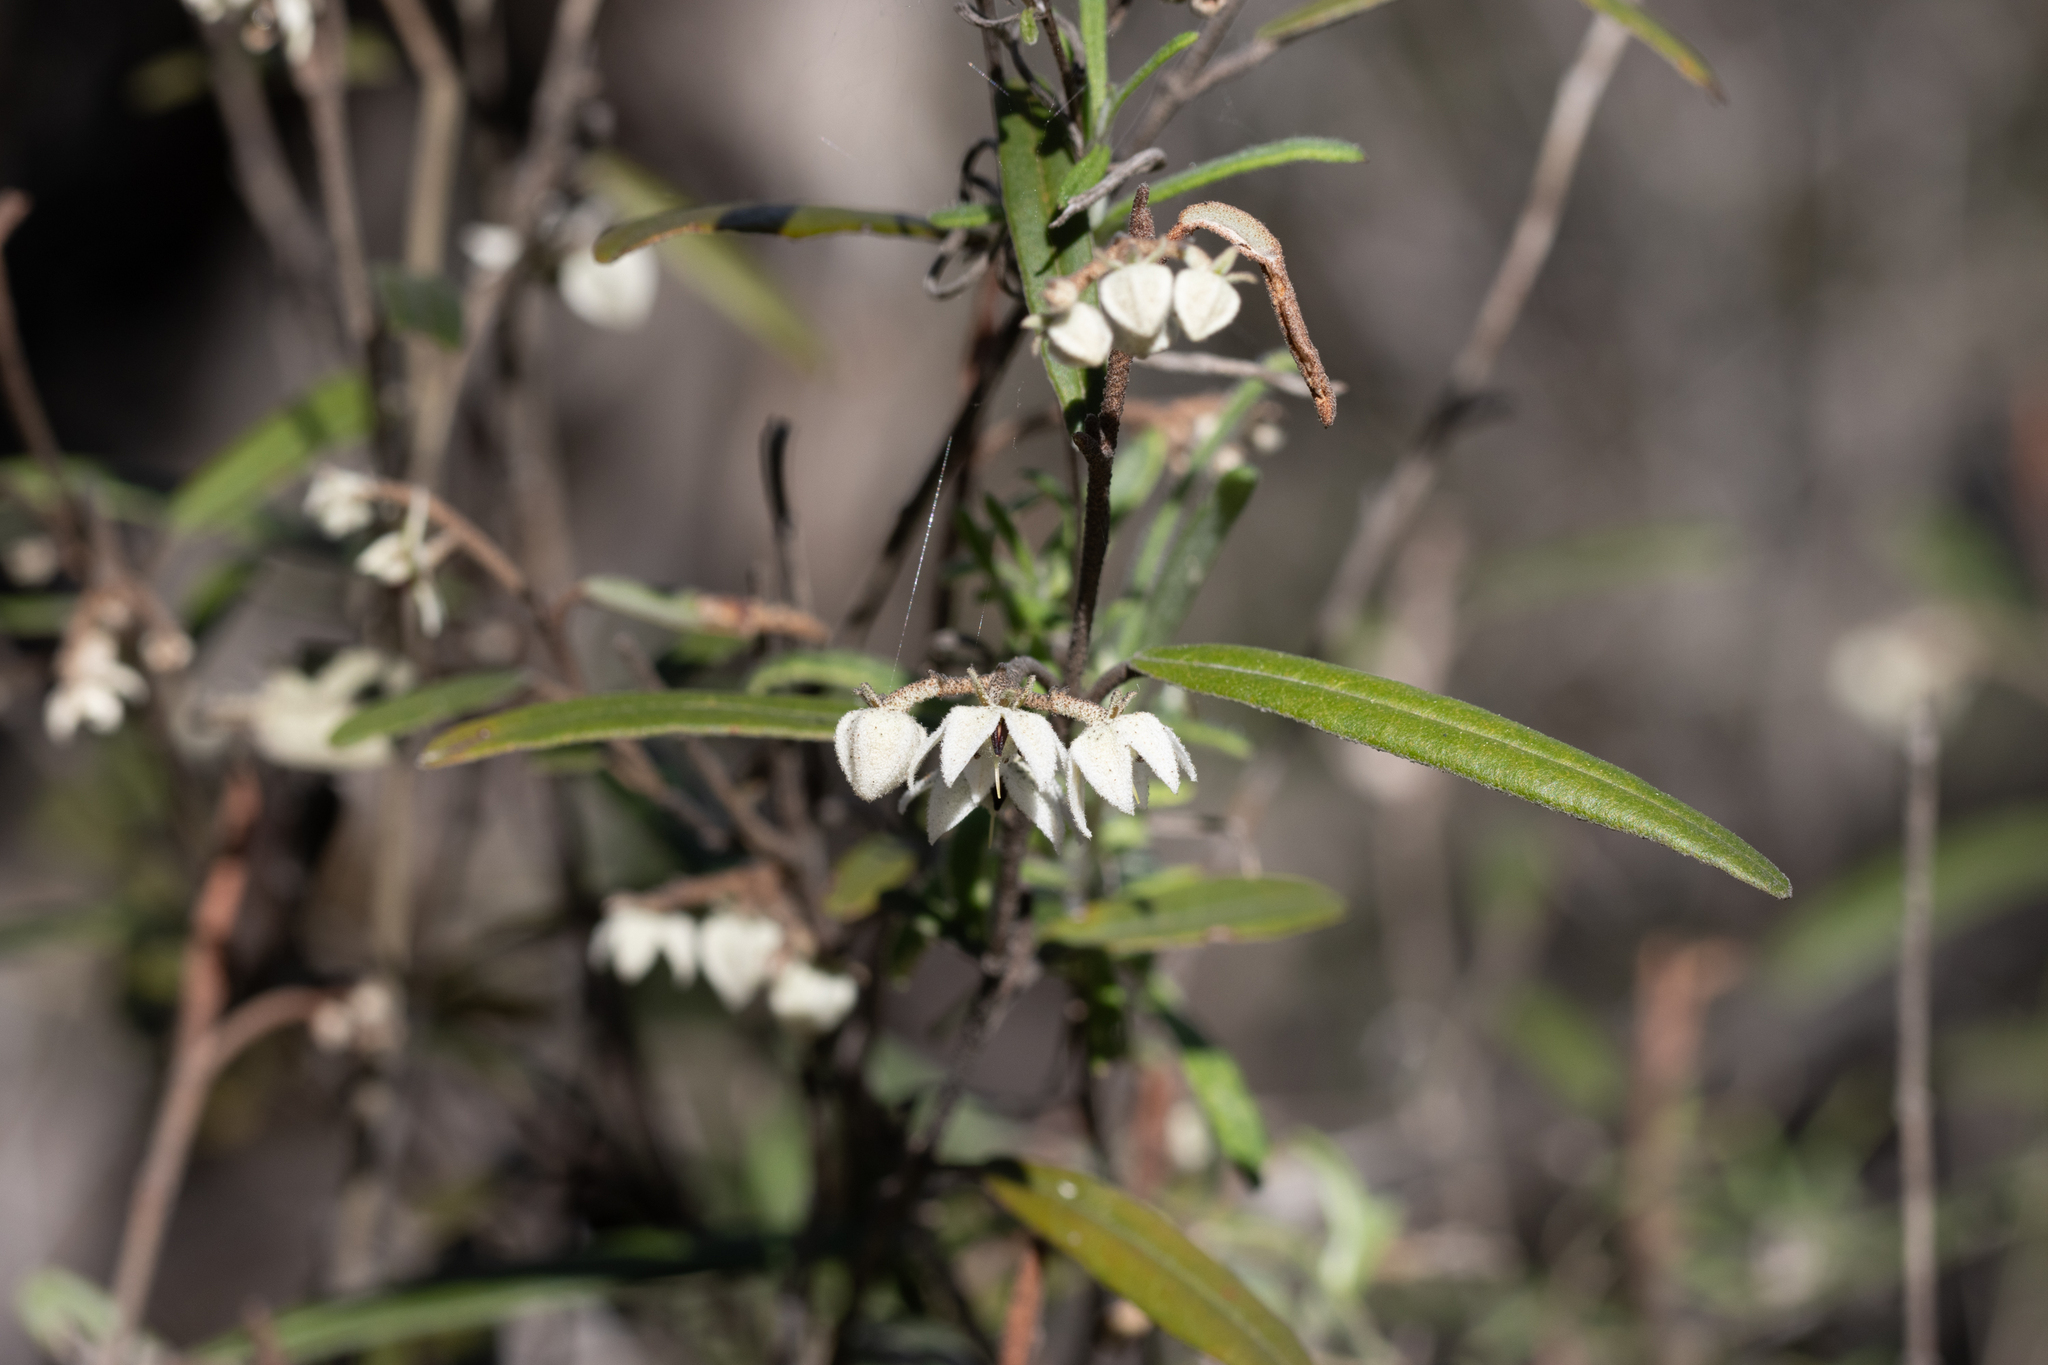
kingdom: Plantae
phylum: Tracheophyta
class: Magnoliopsida
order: Malvales
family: Malvaceae
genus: Lasiopetalum
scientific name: Lasiopetalum behrii
